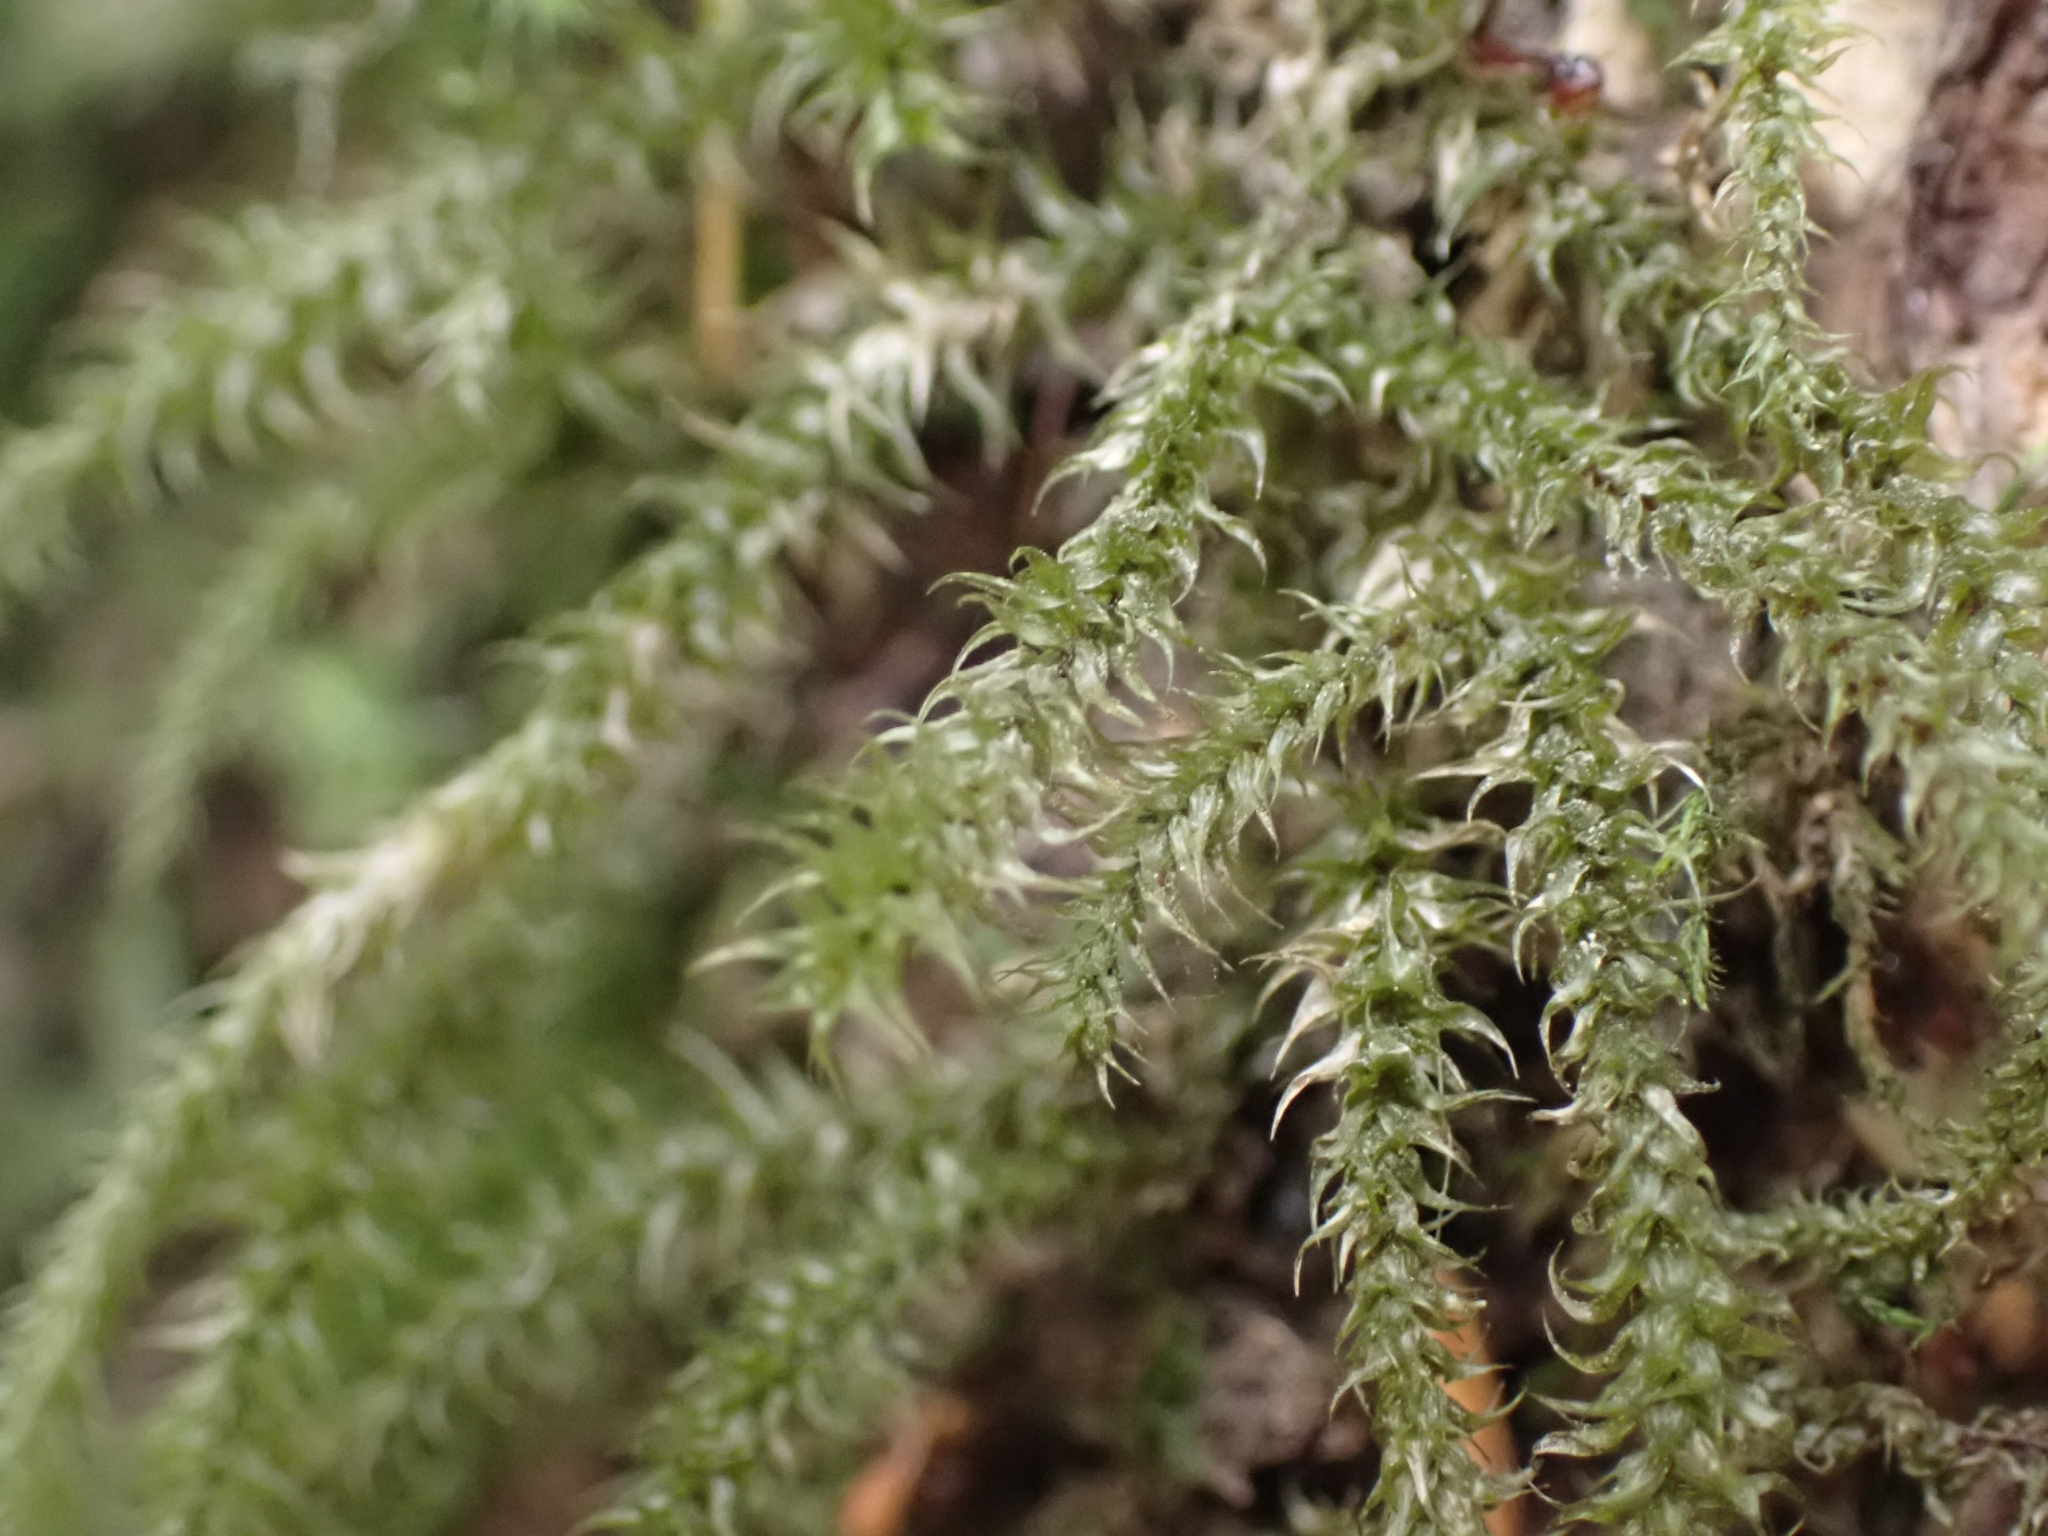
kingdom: Plantae
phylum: Bryophyta
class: Bryopsida
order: Hypnales
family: Hylocomiaceae
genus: Rhytidiadelphus
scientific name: Rhytidiadelphus loreus
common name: Lanky moss
